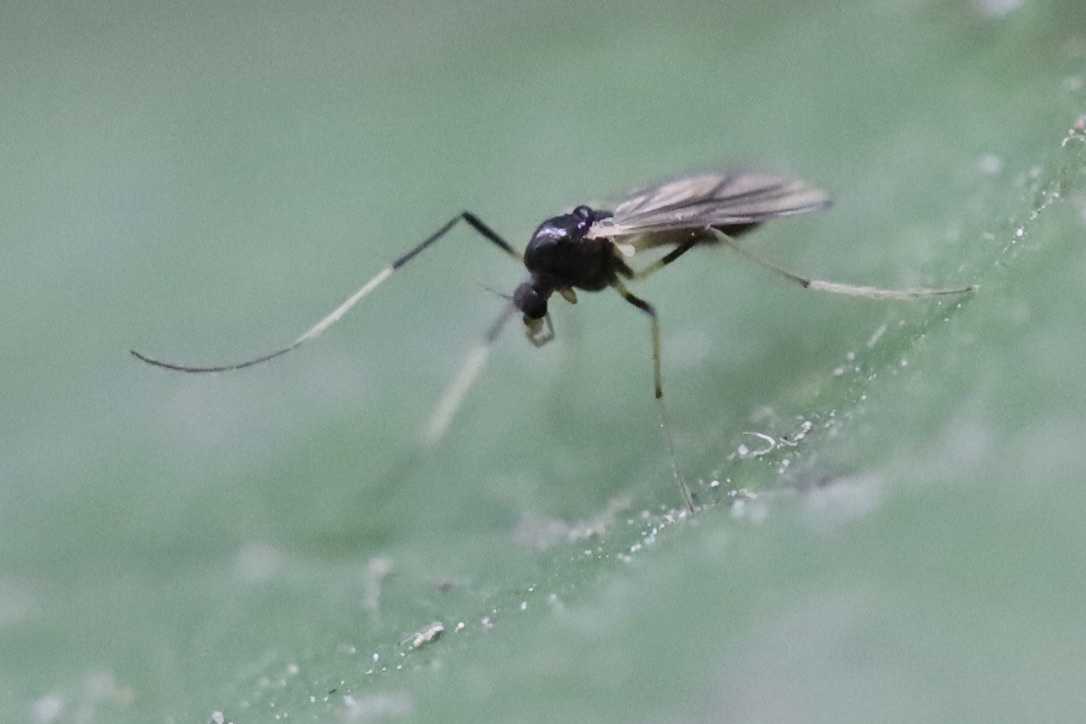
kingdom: Animalia
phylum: Arthropoda
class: Insecta
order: Diptera
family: Chironomidae
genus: Paratendipes
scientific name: Paratendipes albimanus
